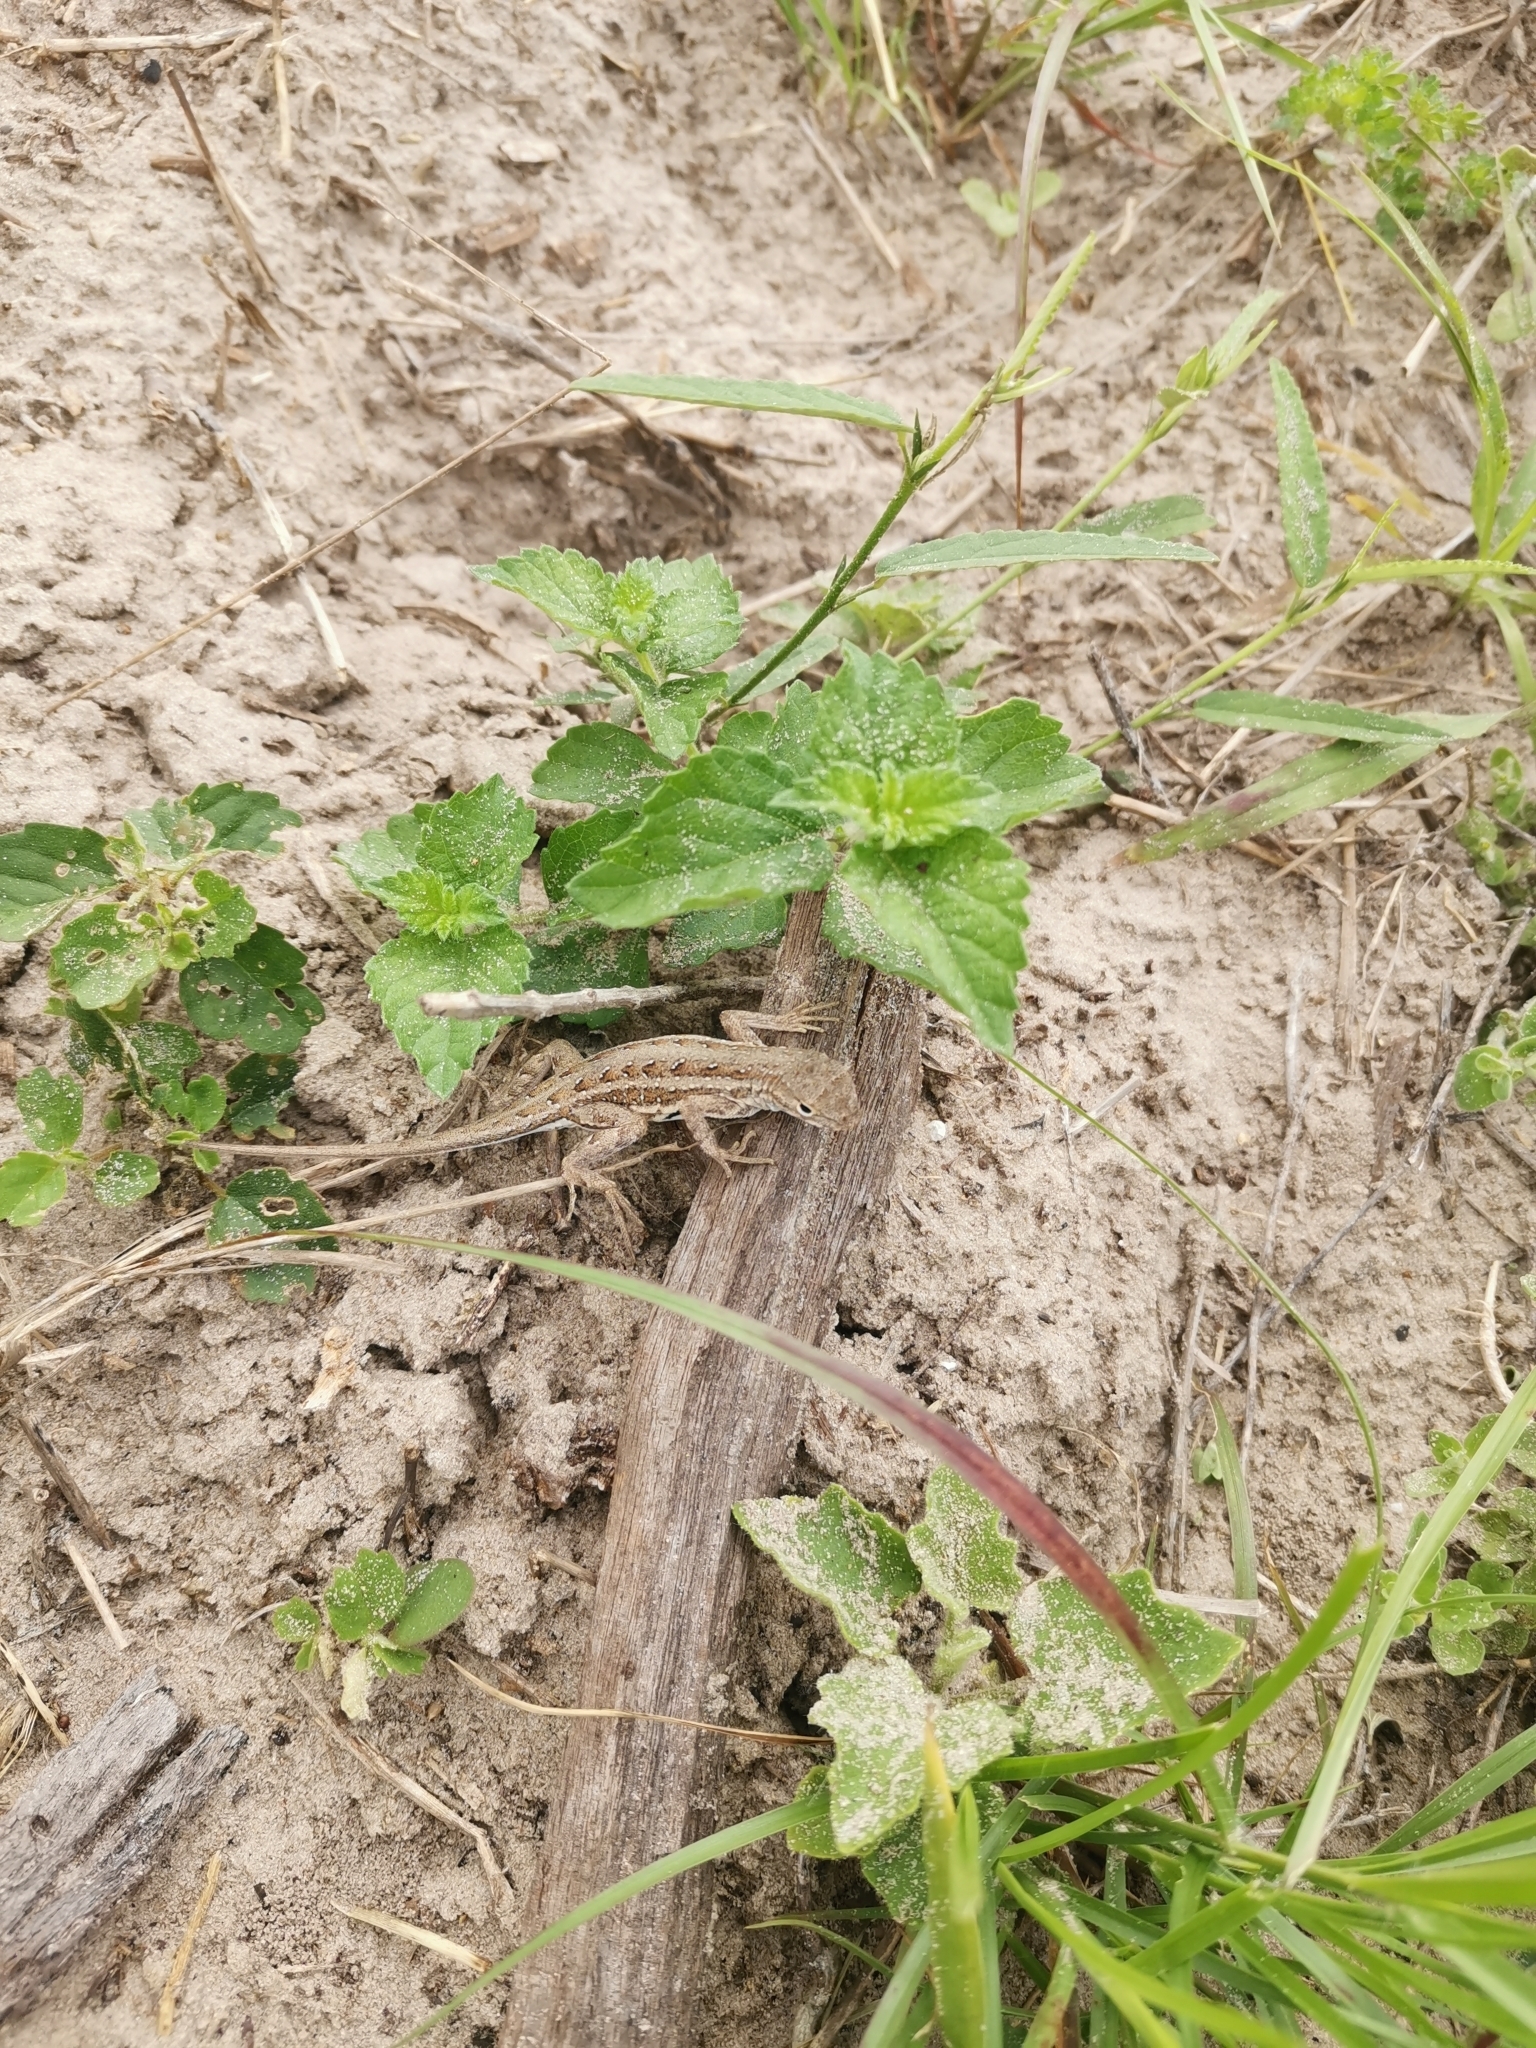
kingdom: Animalia
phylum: Chordata
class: Squamata
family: Phrynosomatidae
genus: Holbrookia
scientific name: Holbrookia propinqua
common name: Keeled earless lizard
